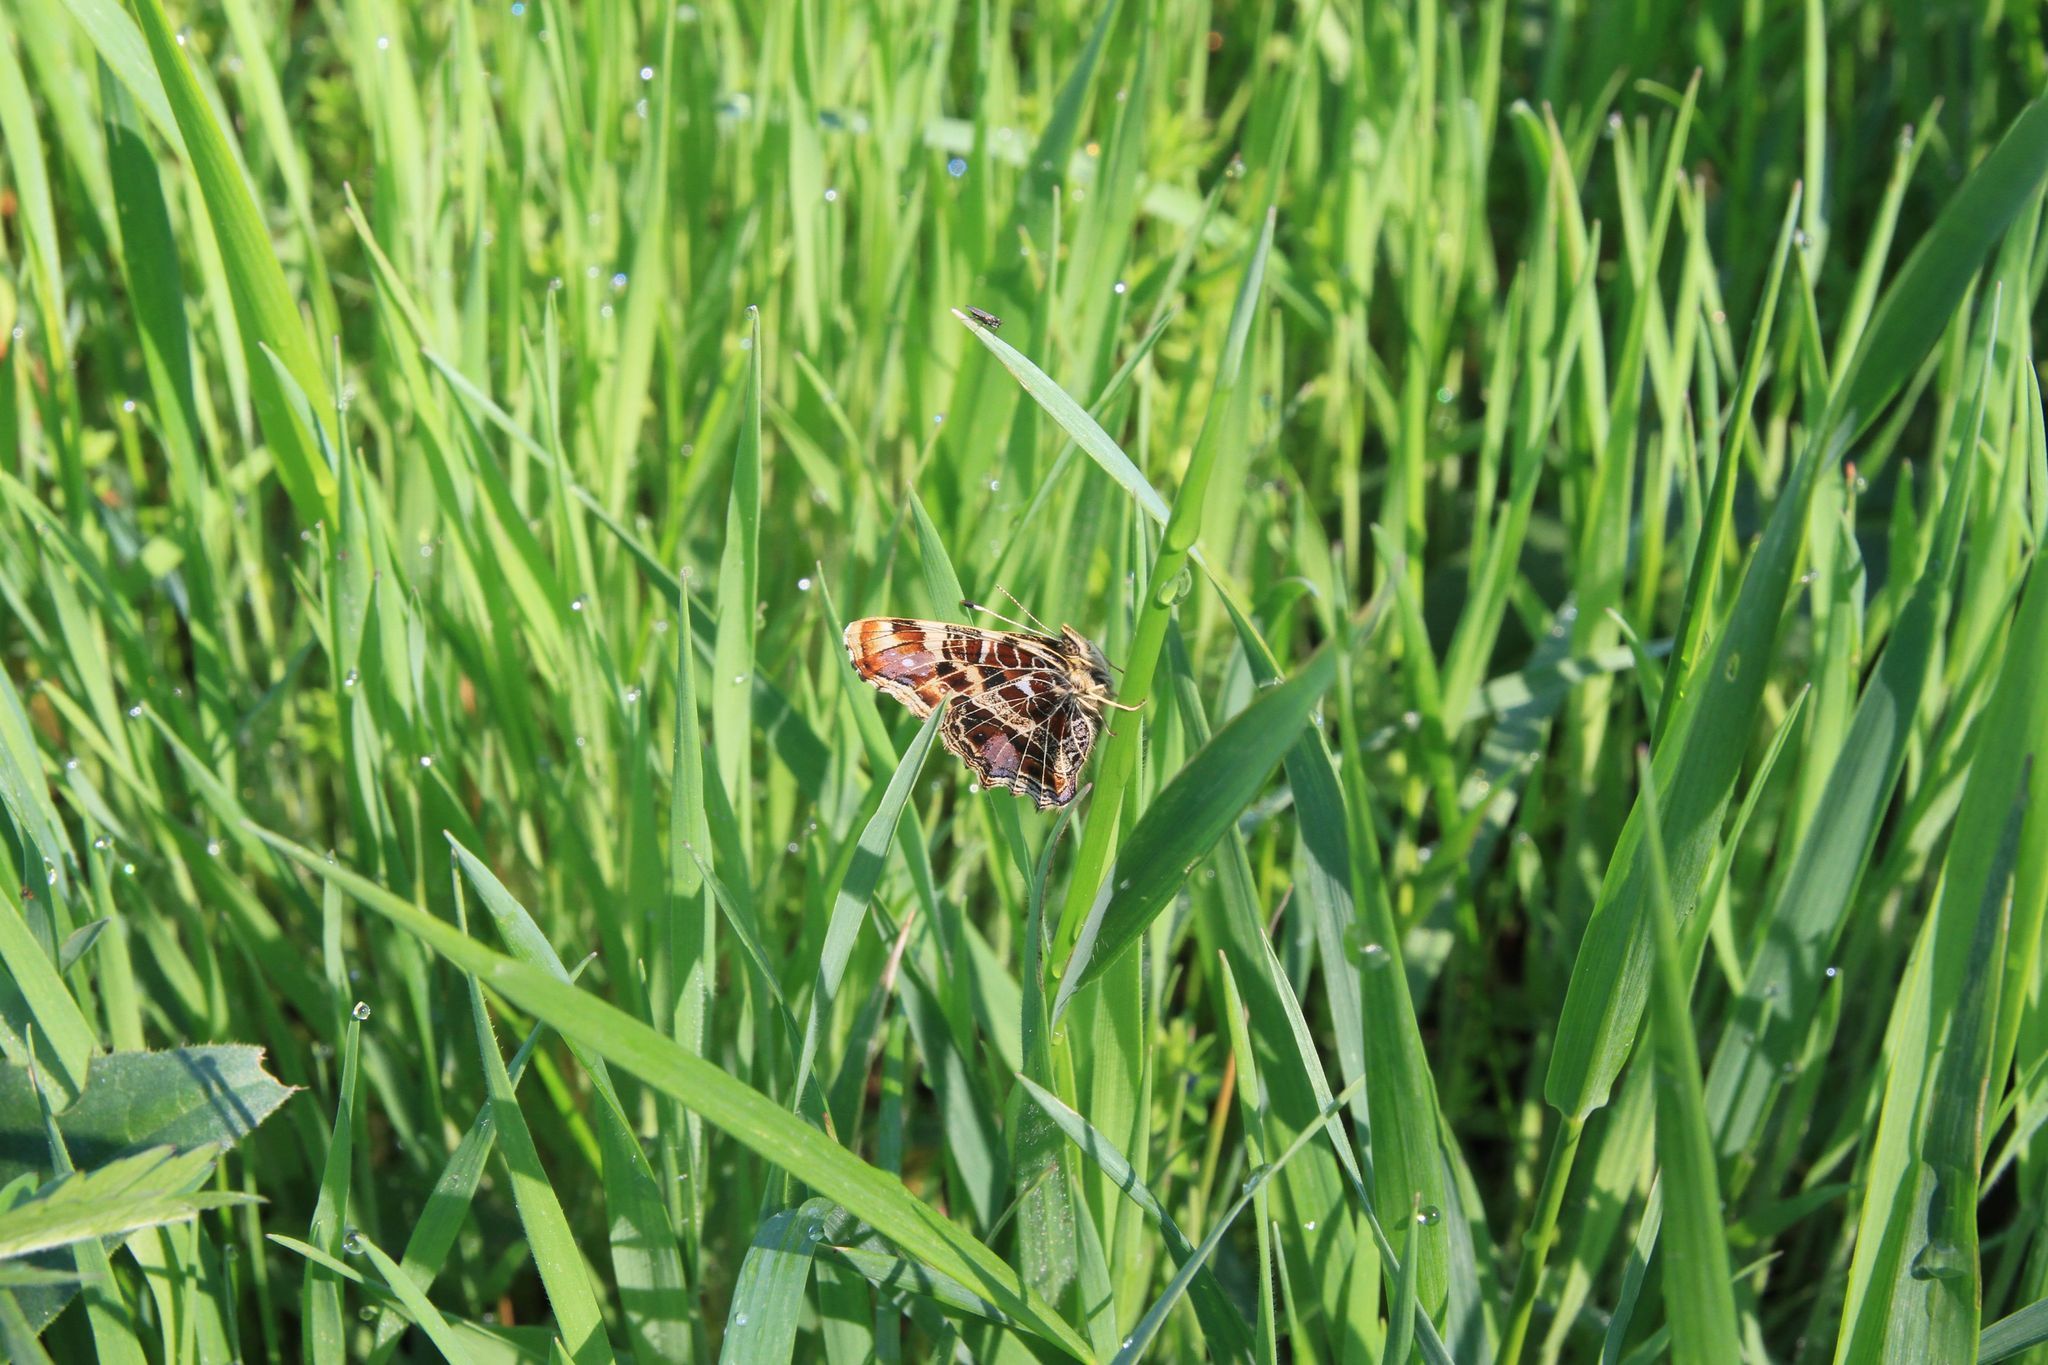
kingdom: Animalia
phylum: Arthropoda
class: Insecta
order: Lepidoptera
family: Nymphalidae
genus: Araschnia
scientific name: Araschnia levana
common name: Map butterfly
